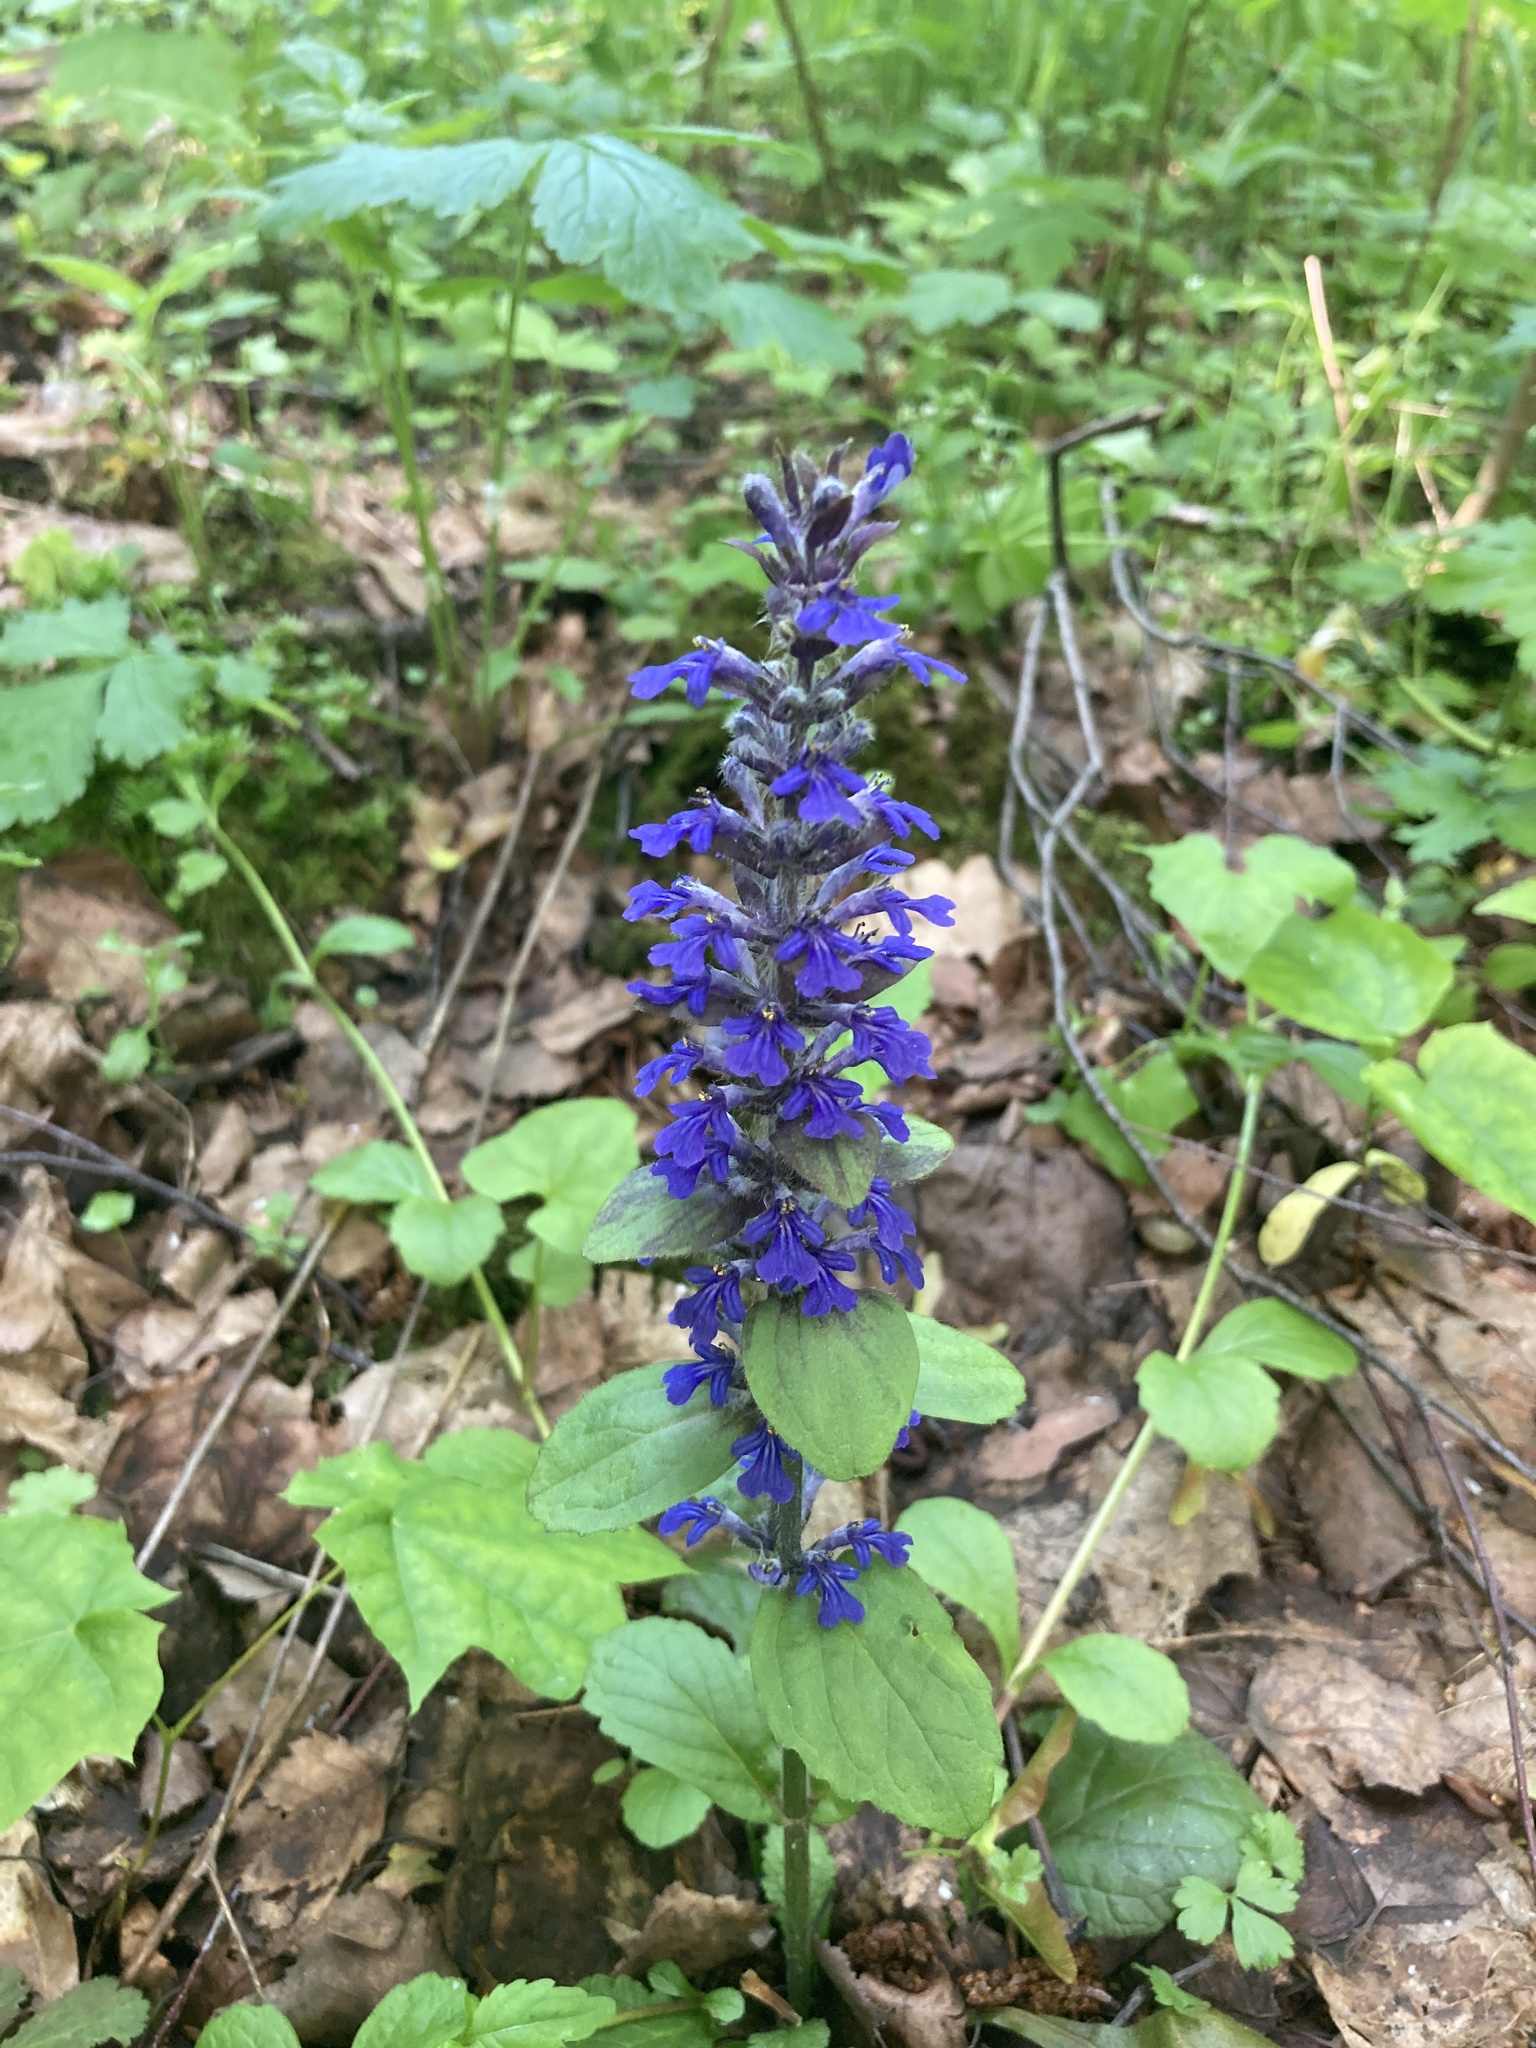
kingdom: Plantae
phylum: Tracheophyta
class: Magnoliopsida
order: Lamiales
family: Lamiaceae
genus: Ajuga
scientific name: Ajuga reptans
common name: Bugle
